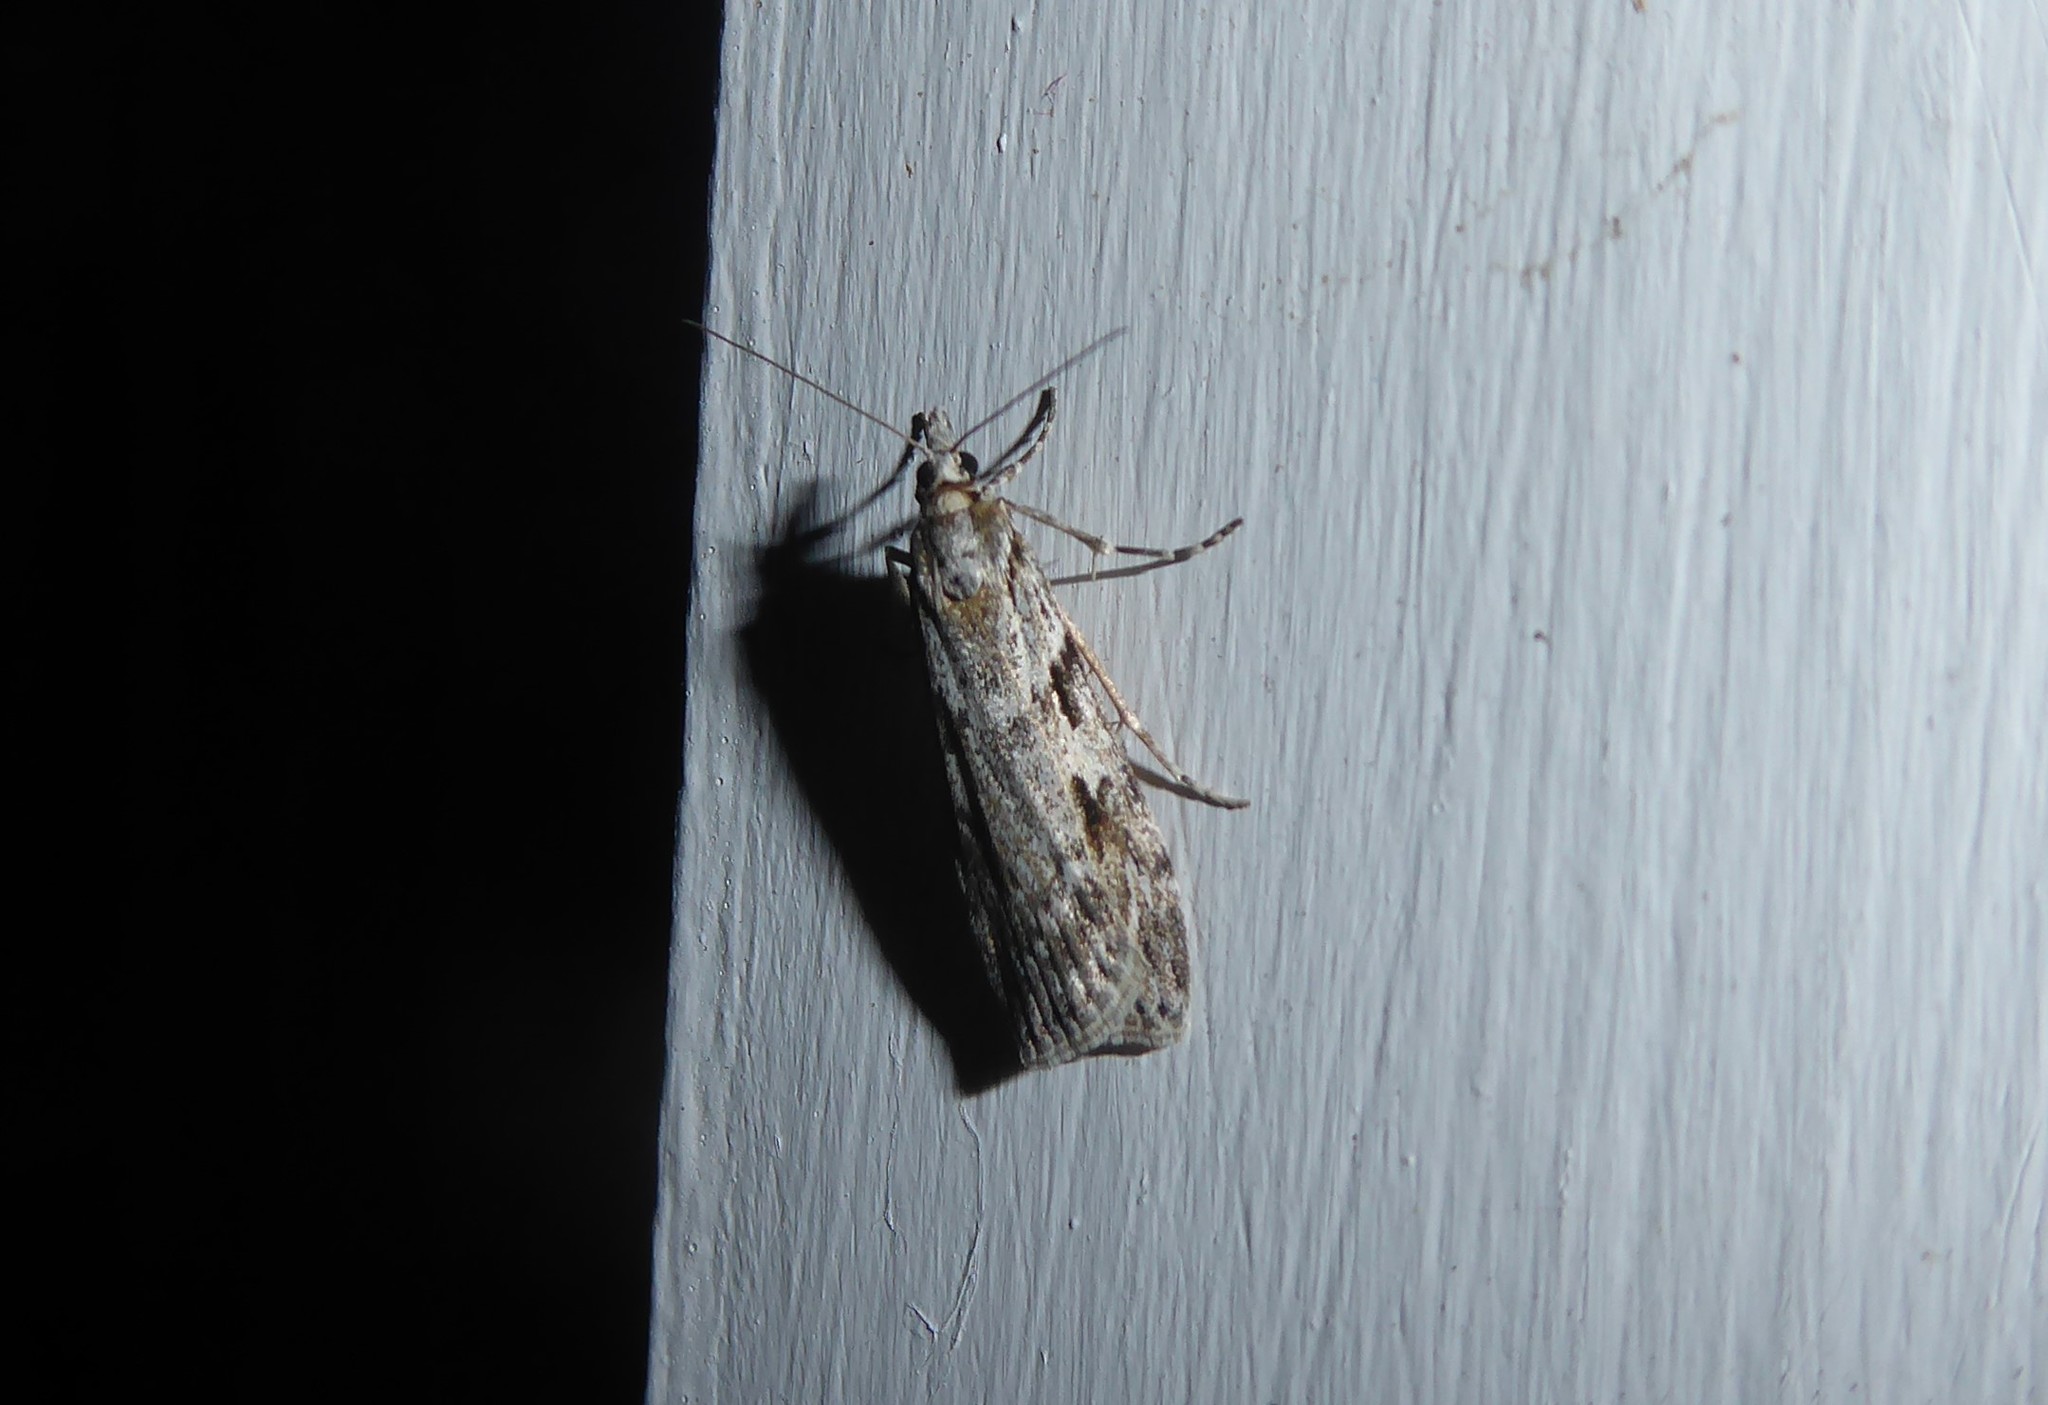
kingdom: Animalia
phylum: Arthropoda
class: Insecta
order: Lepidoptera
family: Crambidae
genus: Scoparia
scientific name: Scoparia halopis
